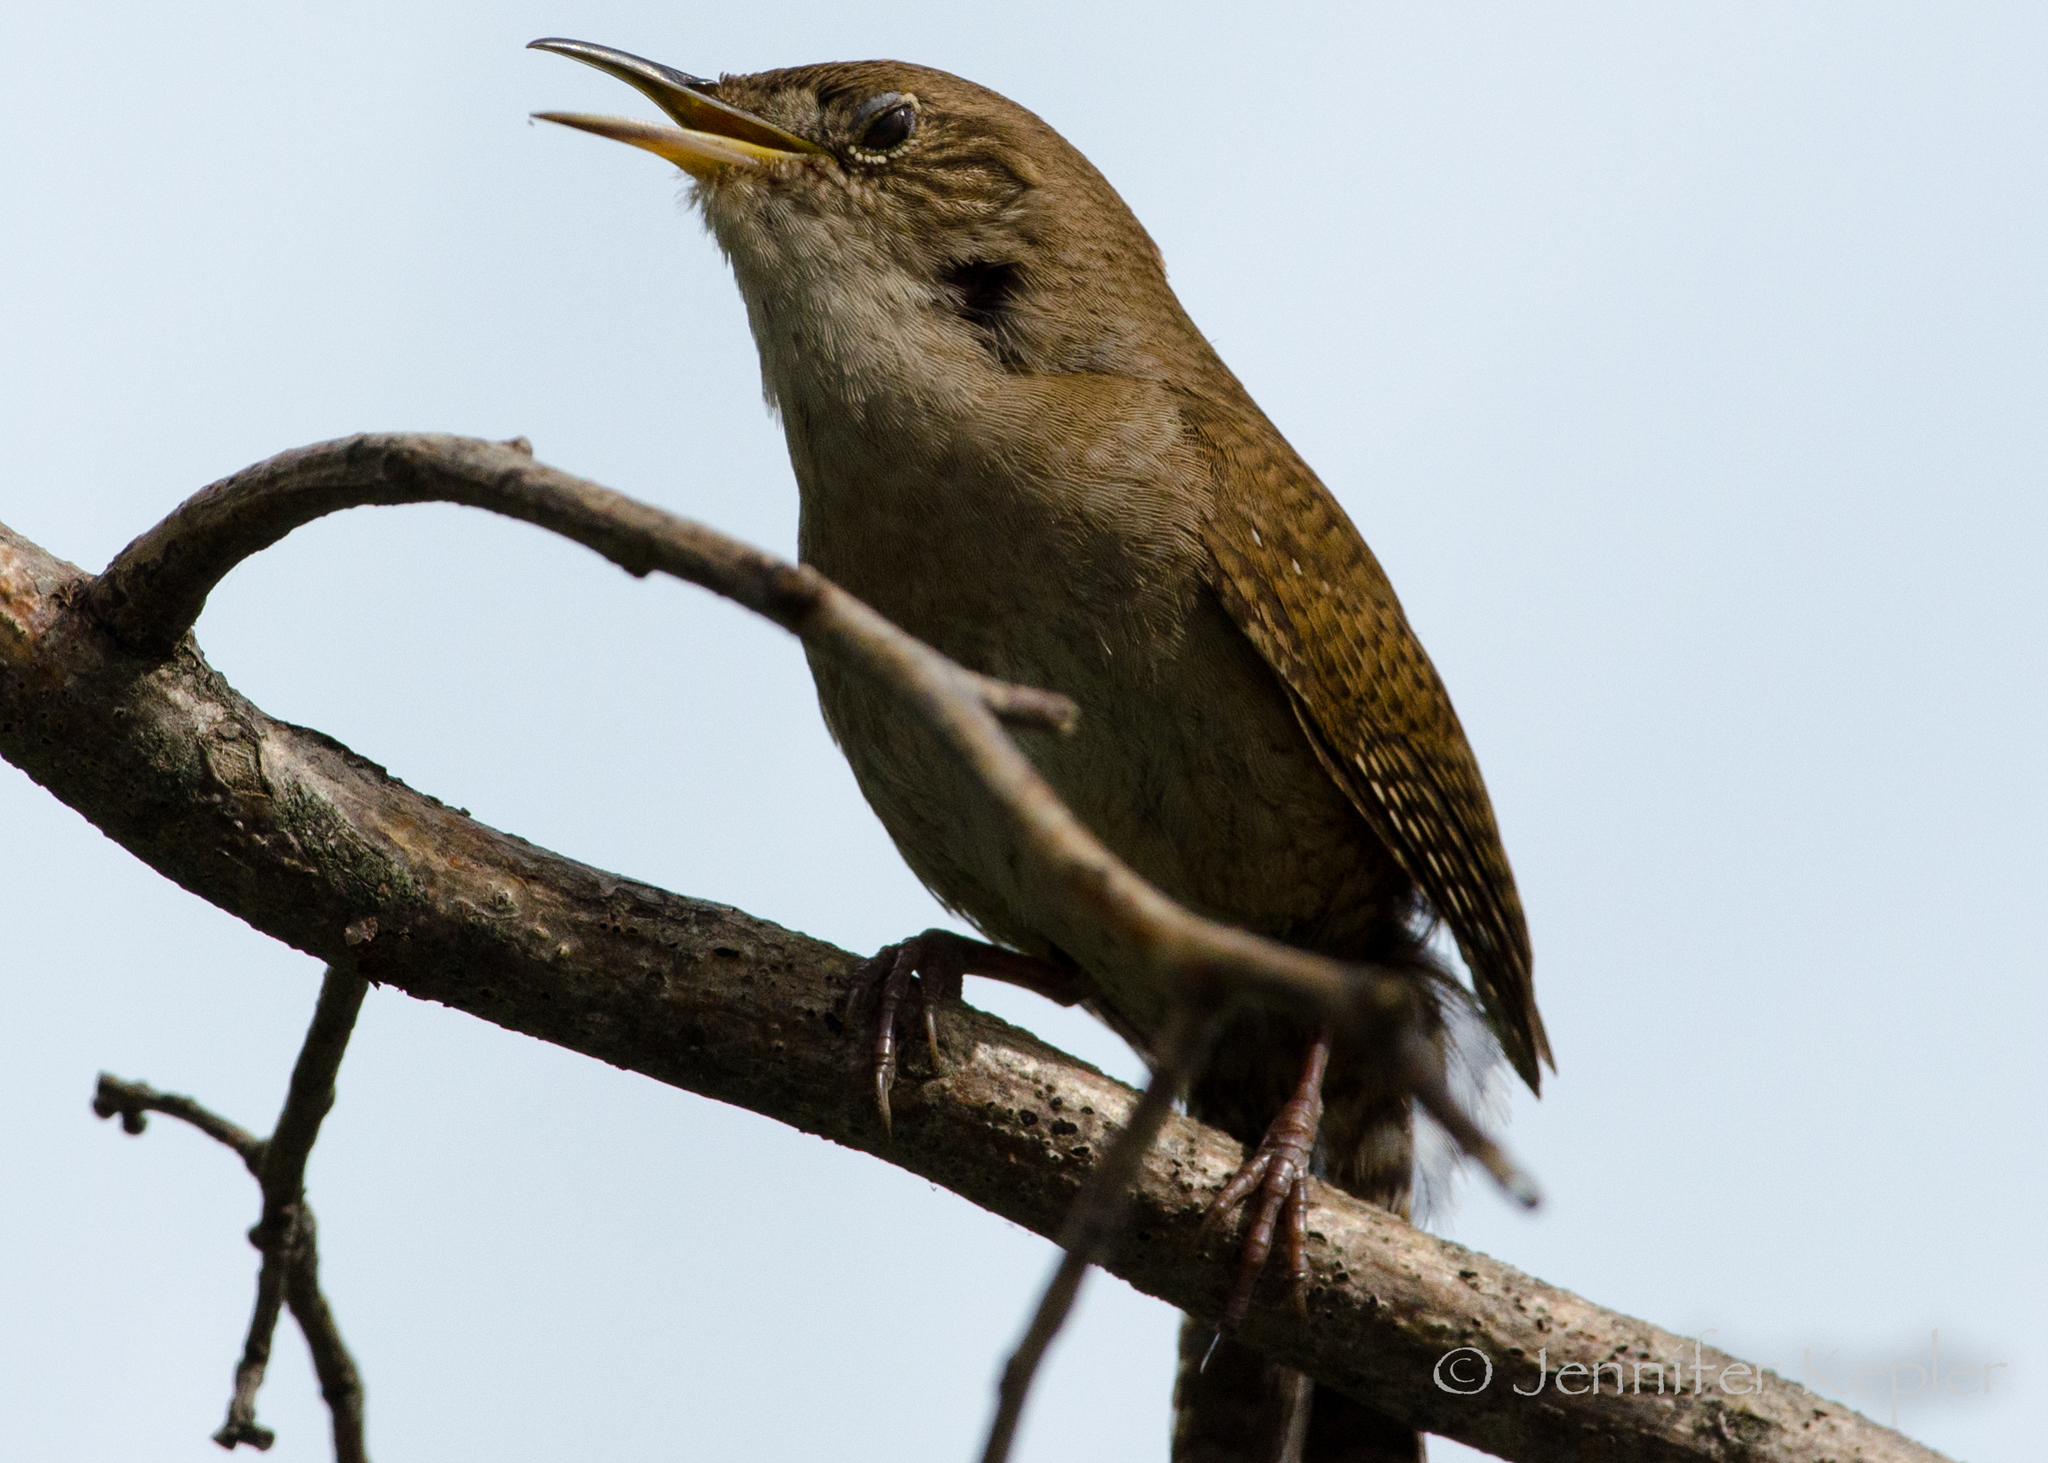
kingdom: Animalia
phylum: Chordata
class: Aves
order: Passeriformes
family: Troglodytidae
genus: Troglodytes
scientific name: Troglodytes aedon
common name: House wren
